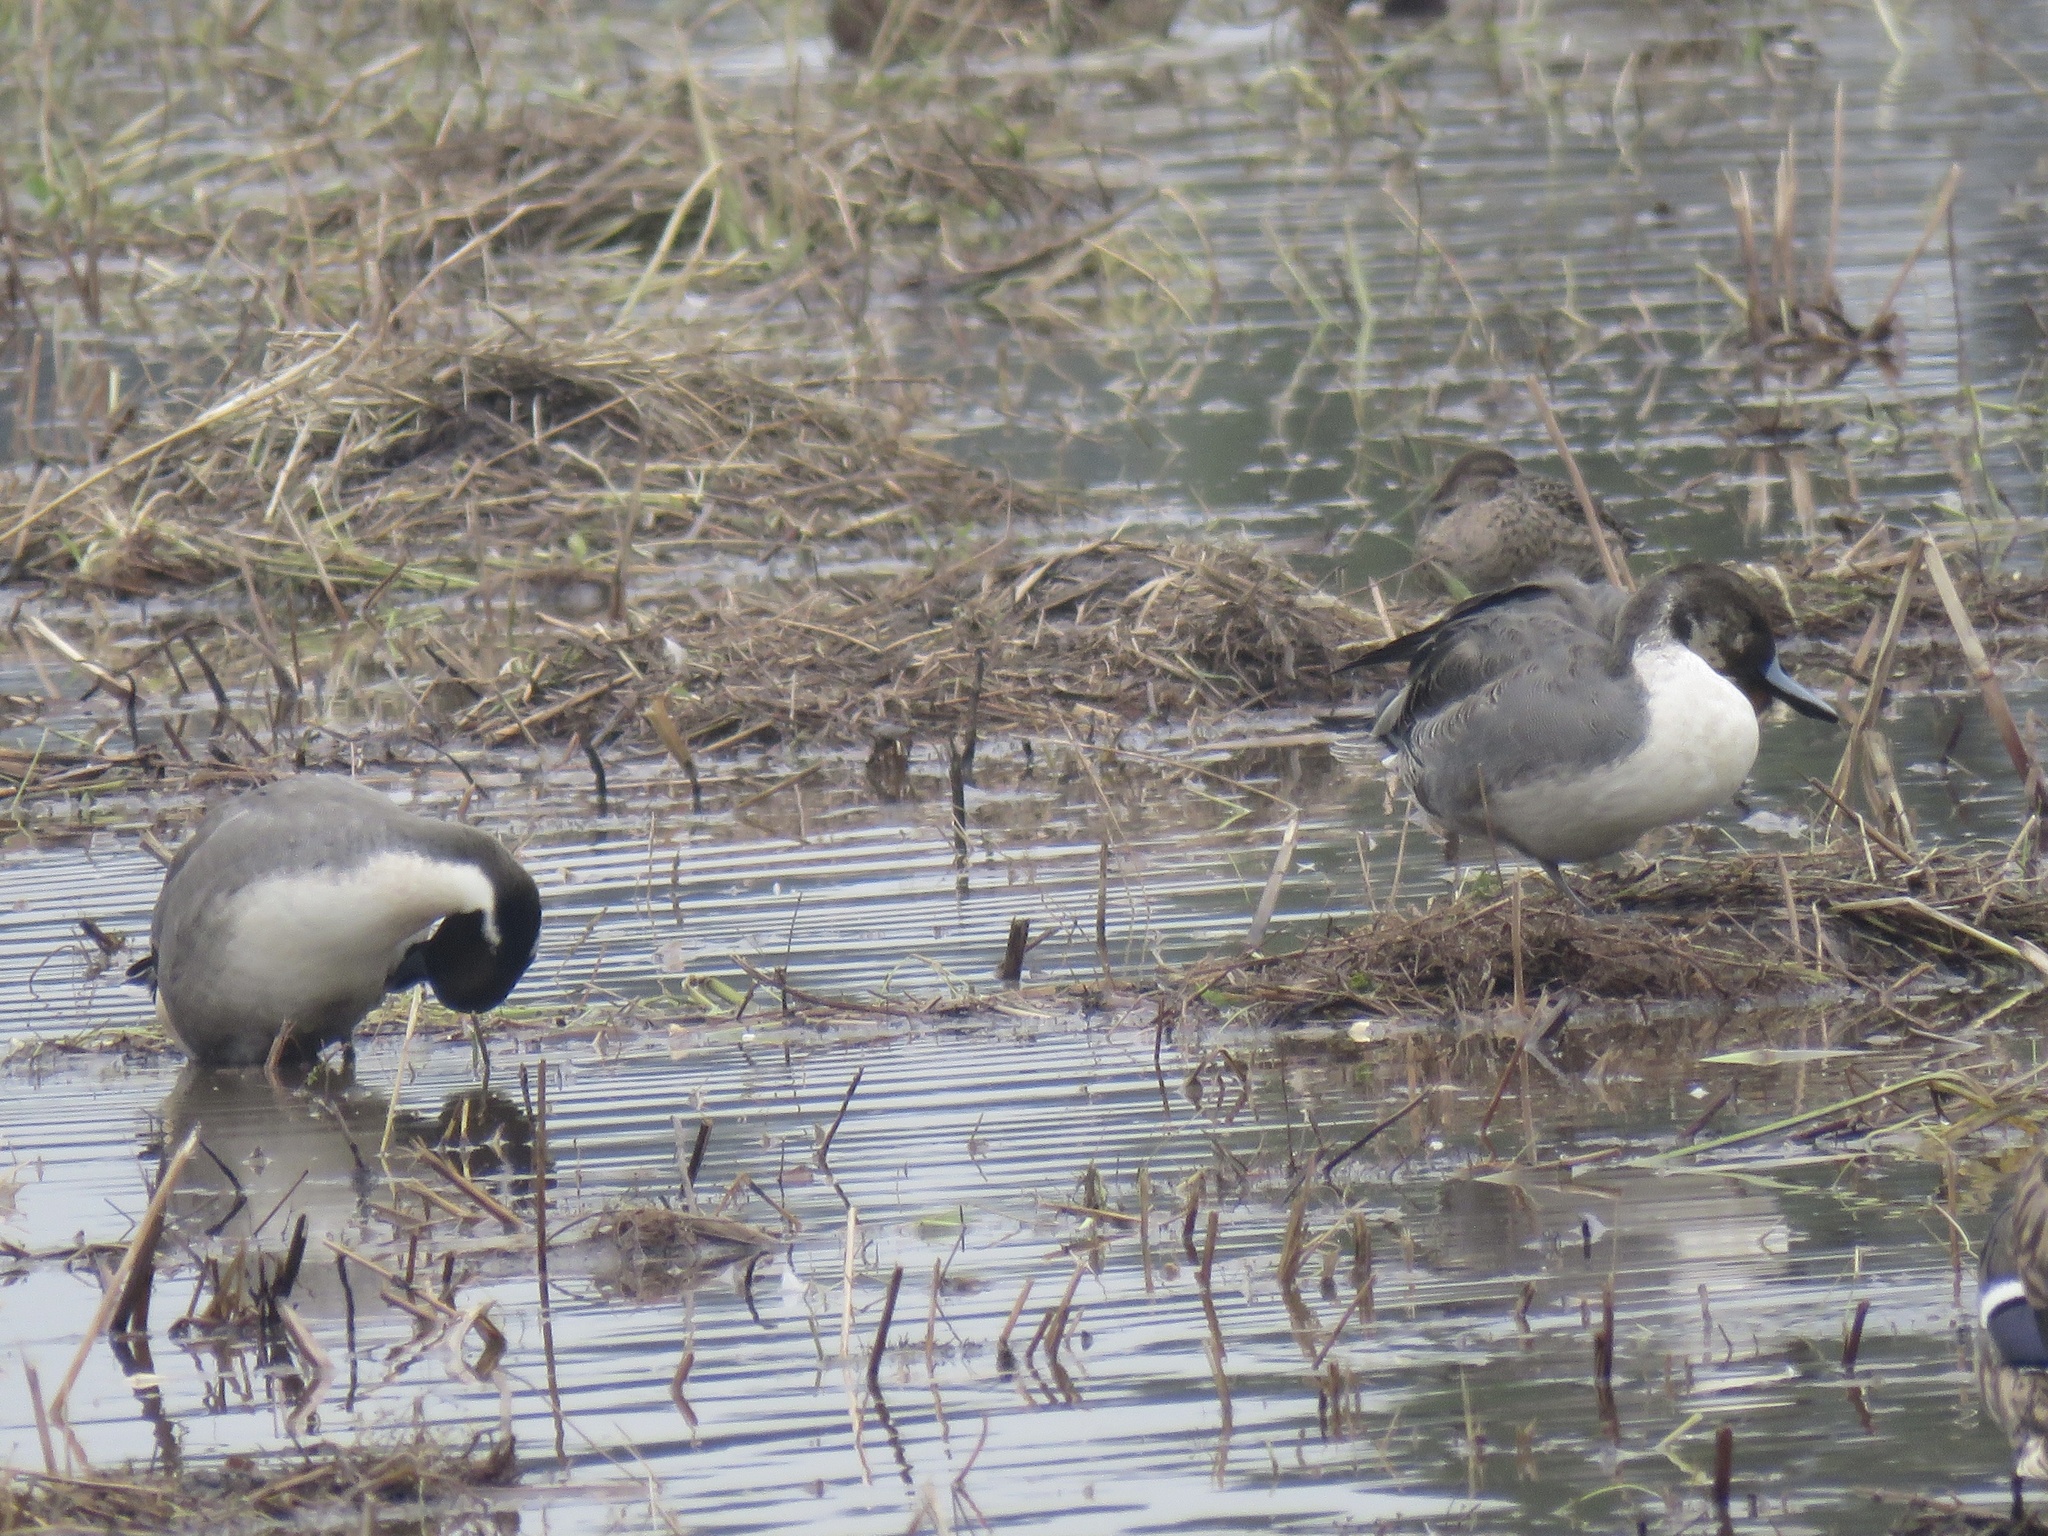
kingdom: Animalia
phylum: Chordata
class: Aves
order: Anseriformes
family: Anatidae
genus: Anas
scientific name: Anas acuta
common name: Northern pintail
